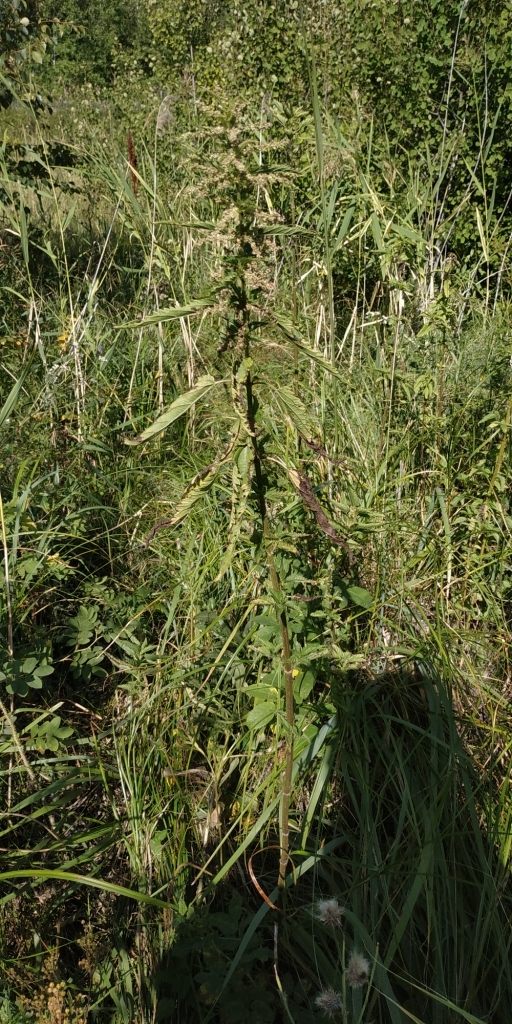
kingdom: Plantae
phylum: Tracheophyta
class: Magnoliopsida
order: Rosales
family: Urticaceae
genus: Urtica
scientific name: Urtica dioica
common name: Common nettle
